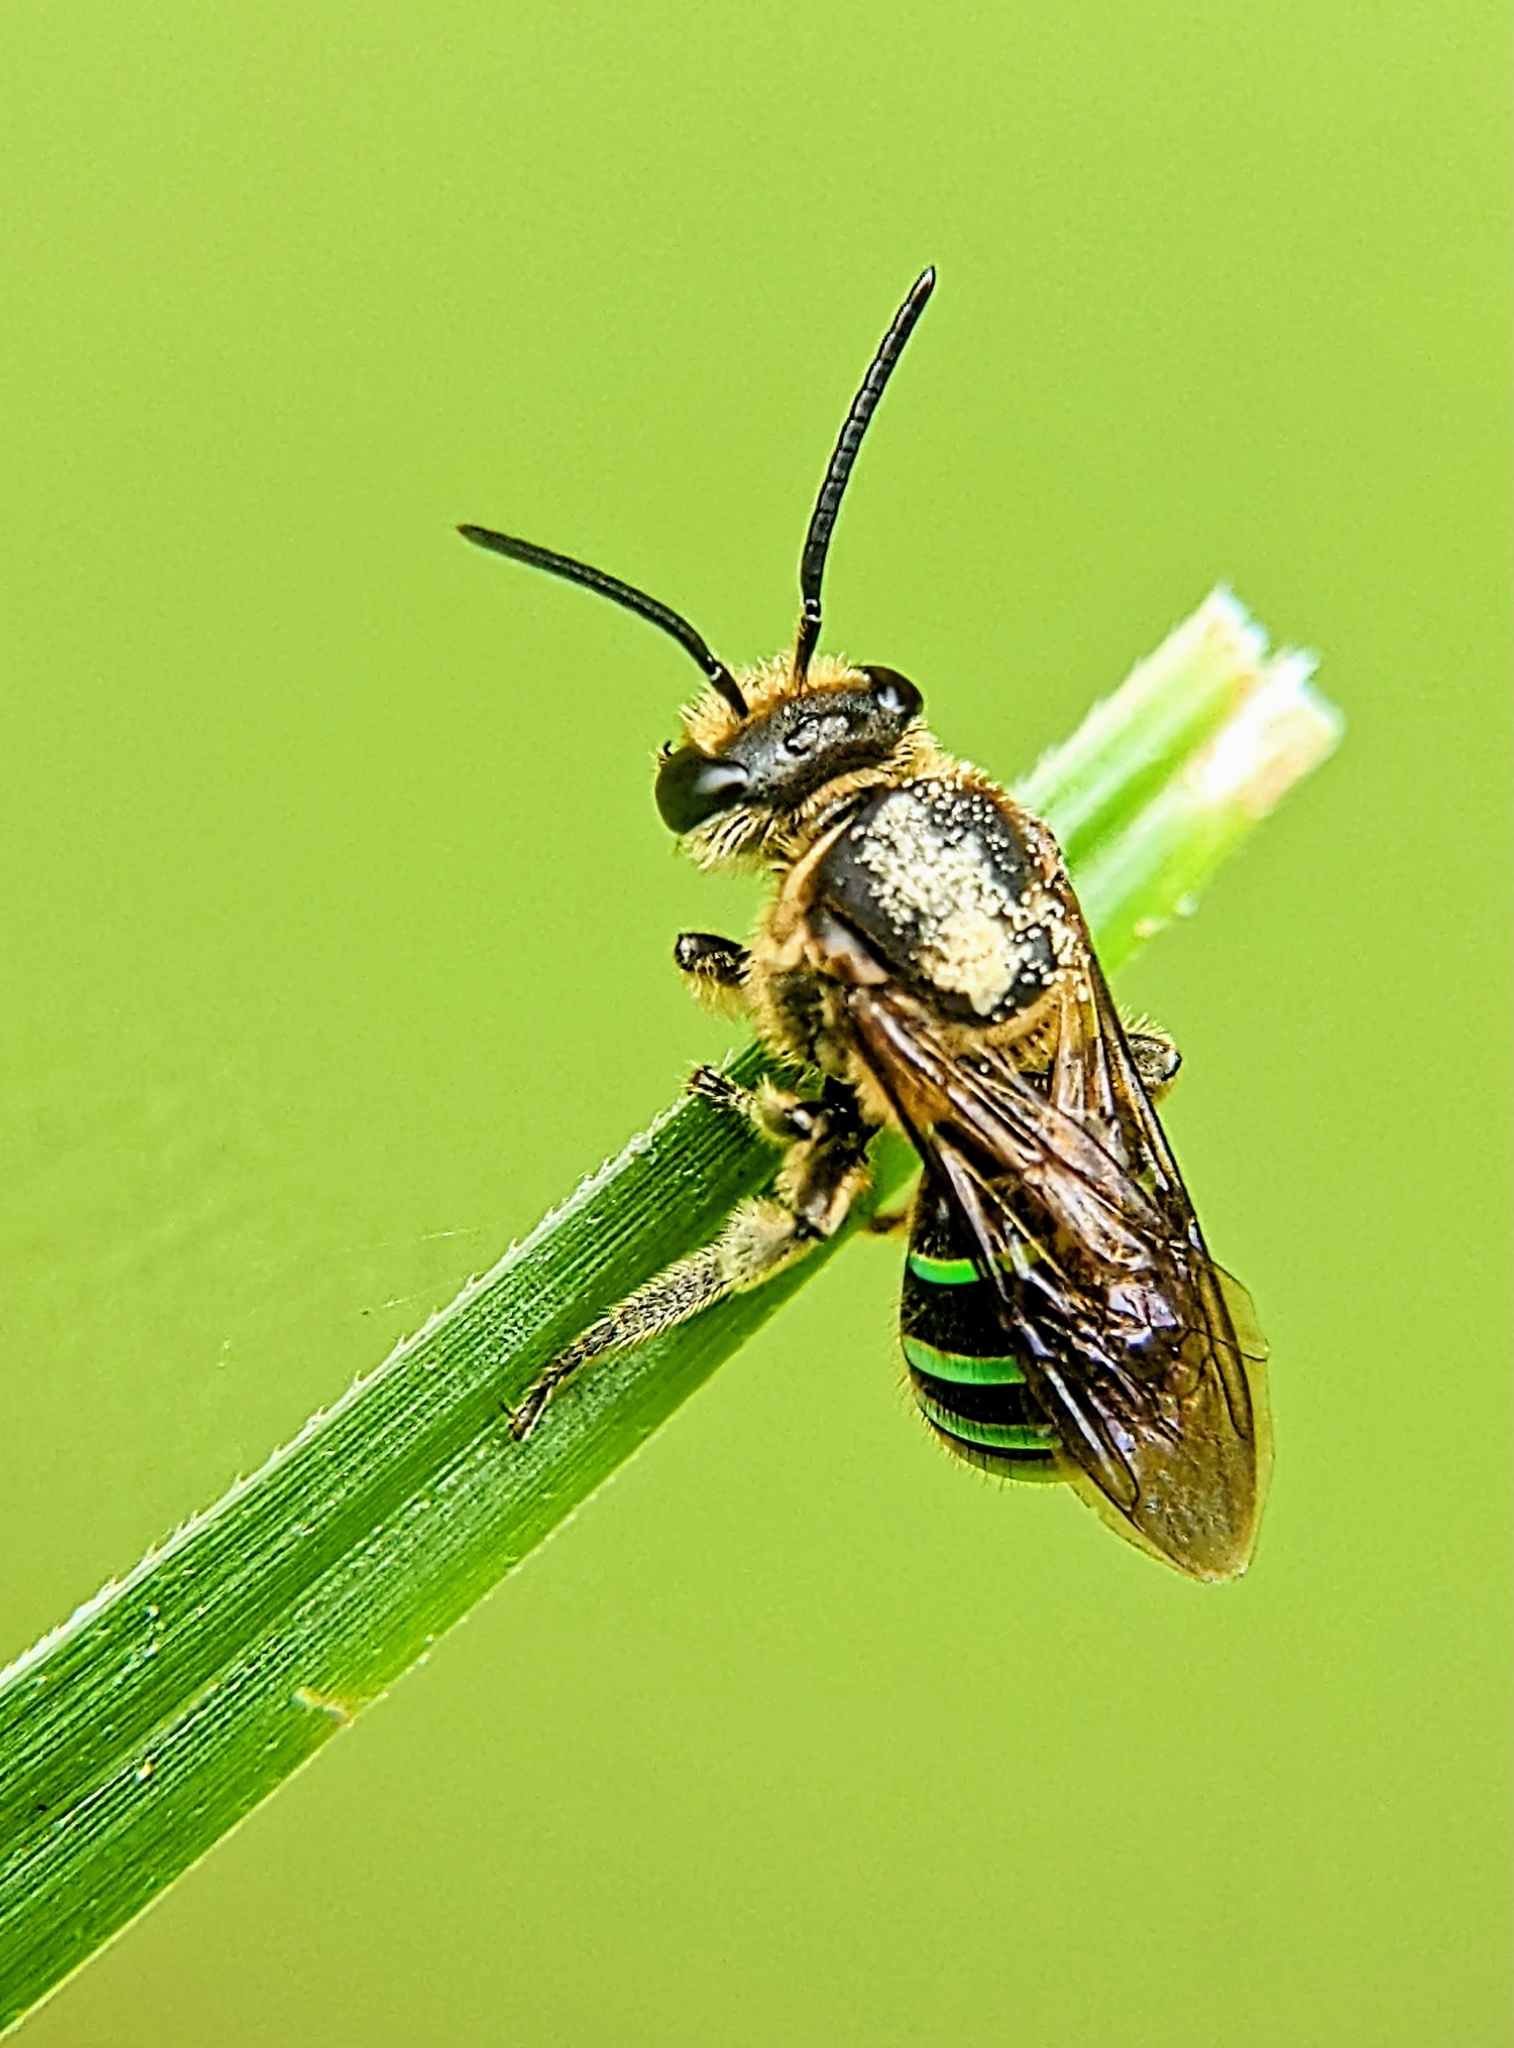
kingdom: Animalia
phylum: Arthropoda
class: Insecta
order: Hymenoptera
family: Halictidae
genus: Nomia
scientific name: Nomia strigata
